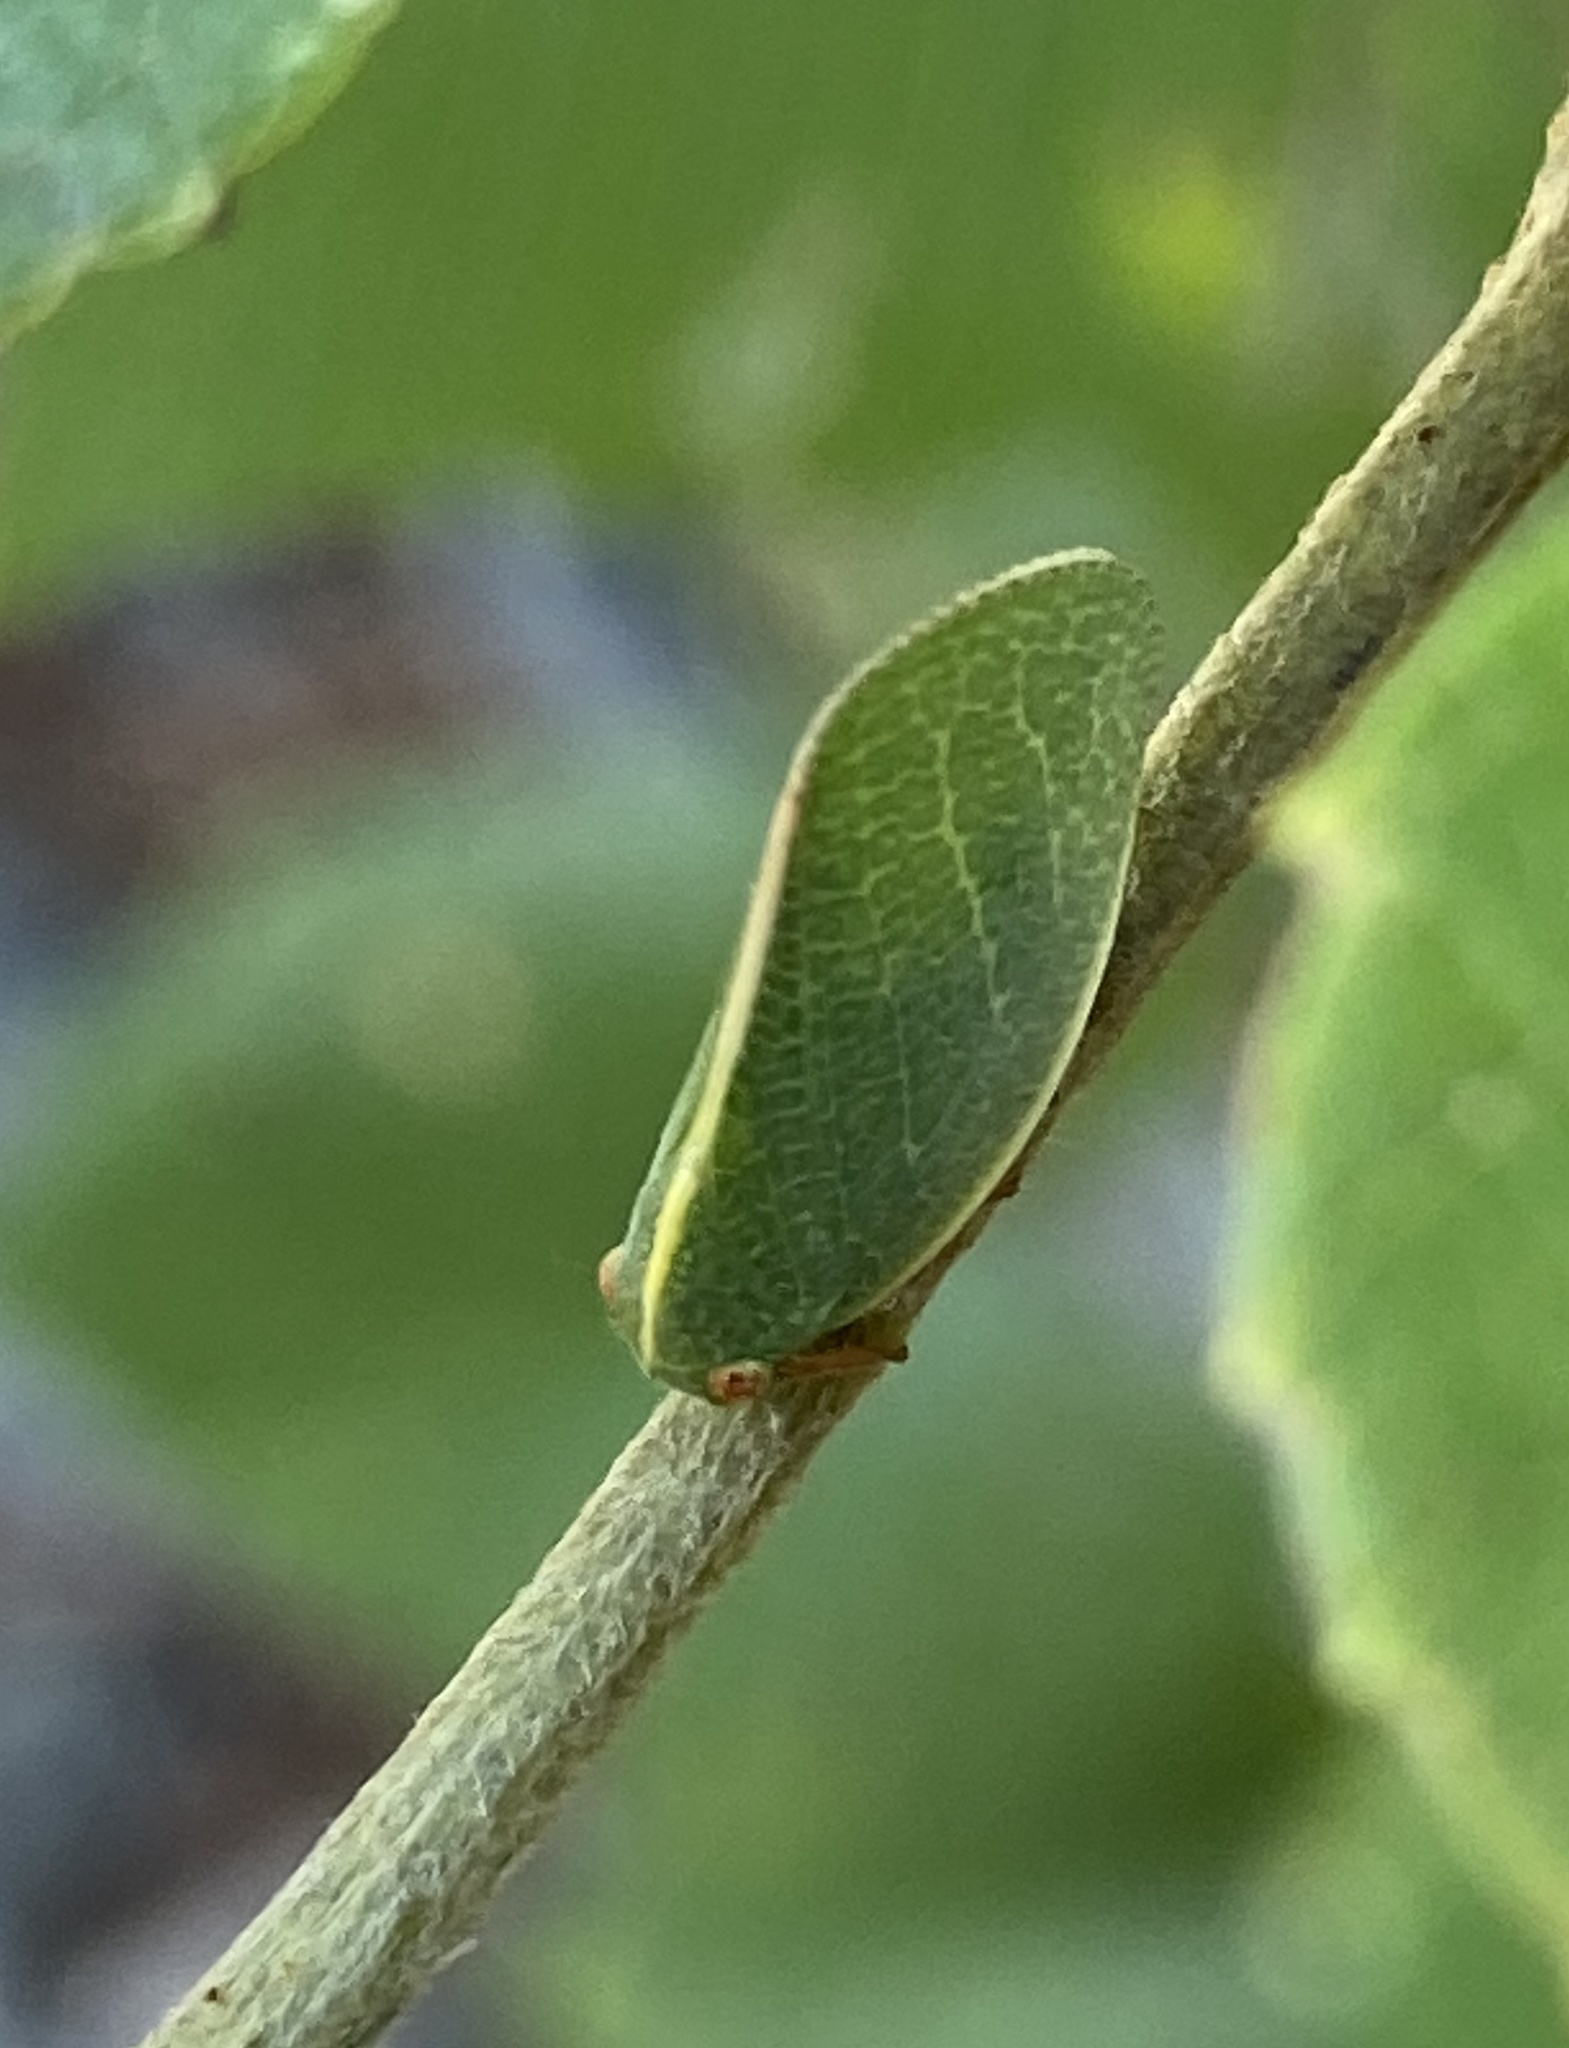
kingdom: Animalia
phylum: Arthropoda
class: Insecta
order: Hemiptera
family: Acanaloniidae
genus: Acanalonia
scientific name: Acanalonia servillei
